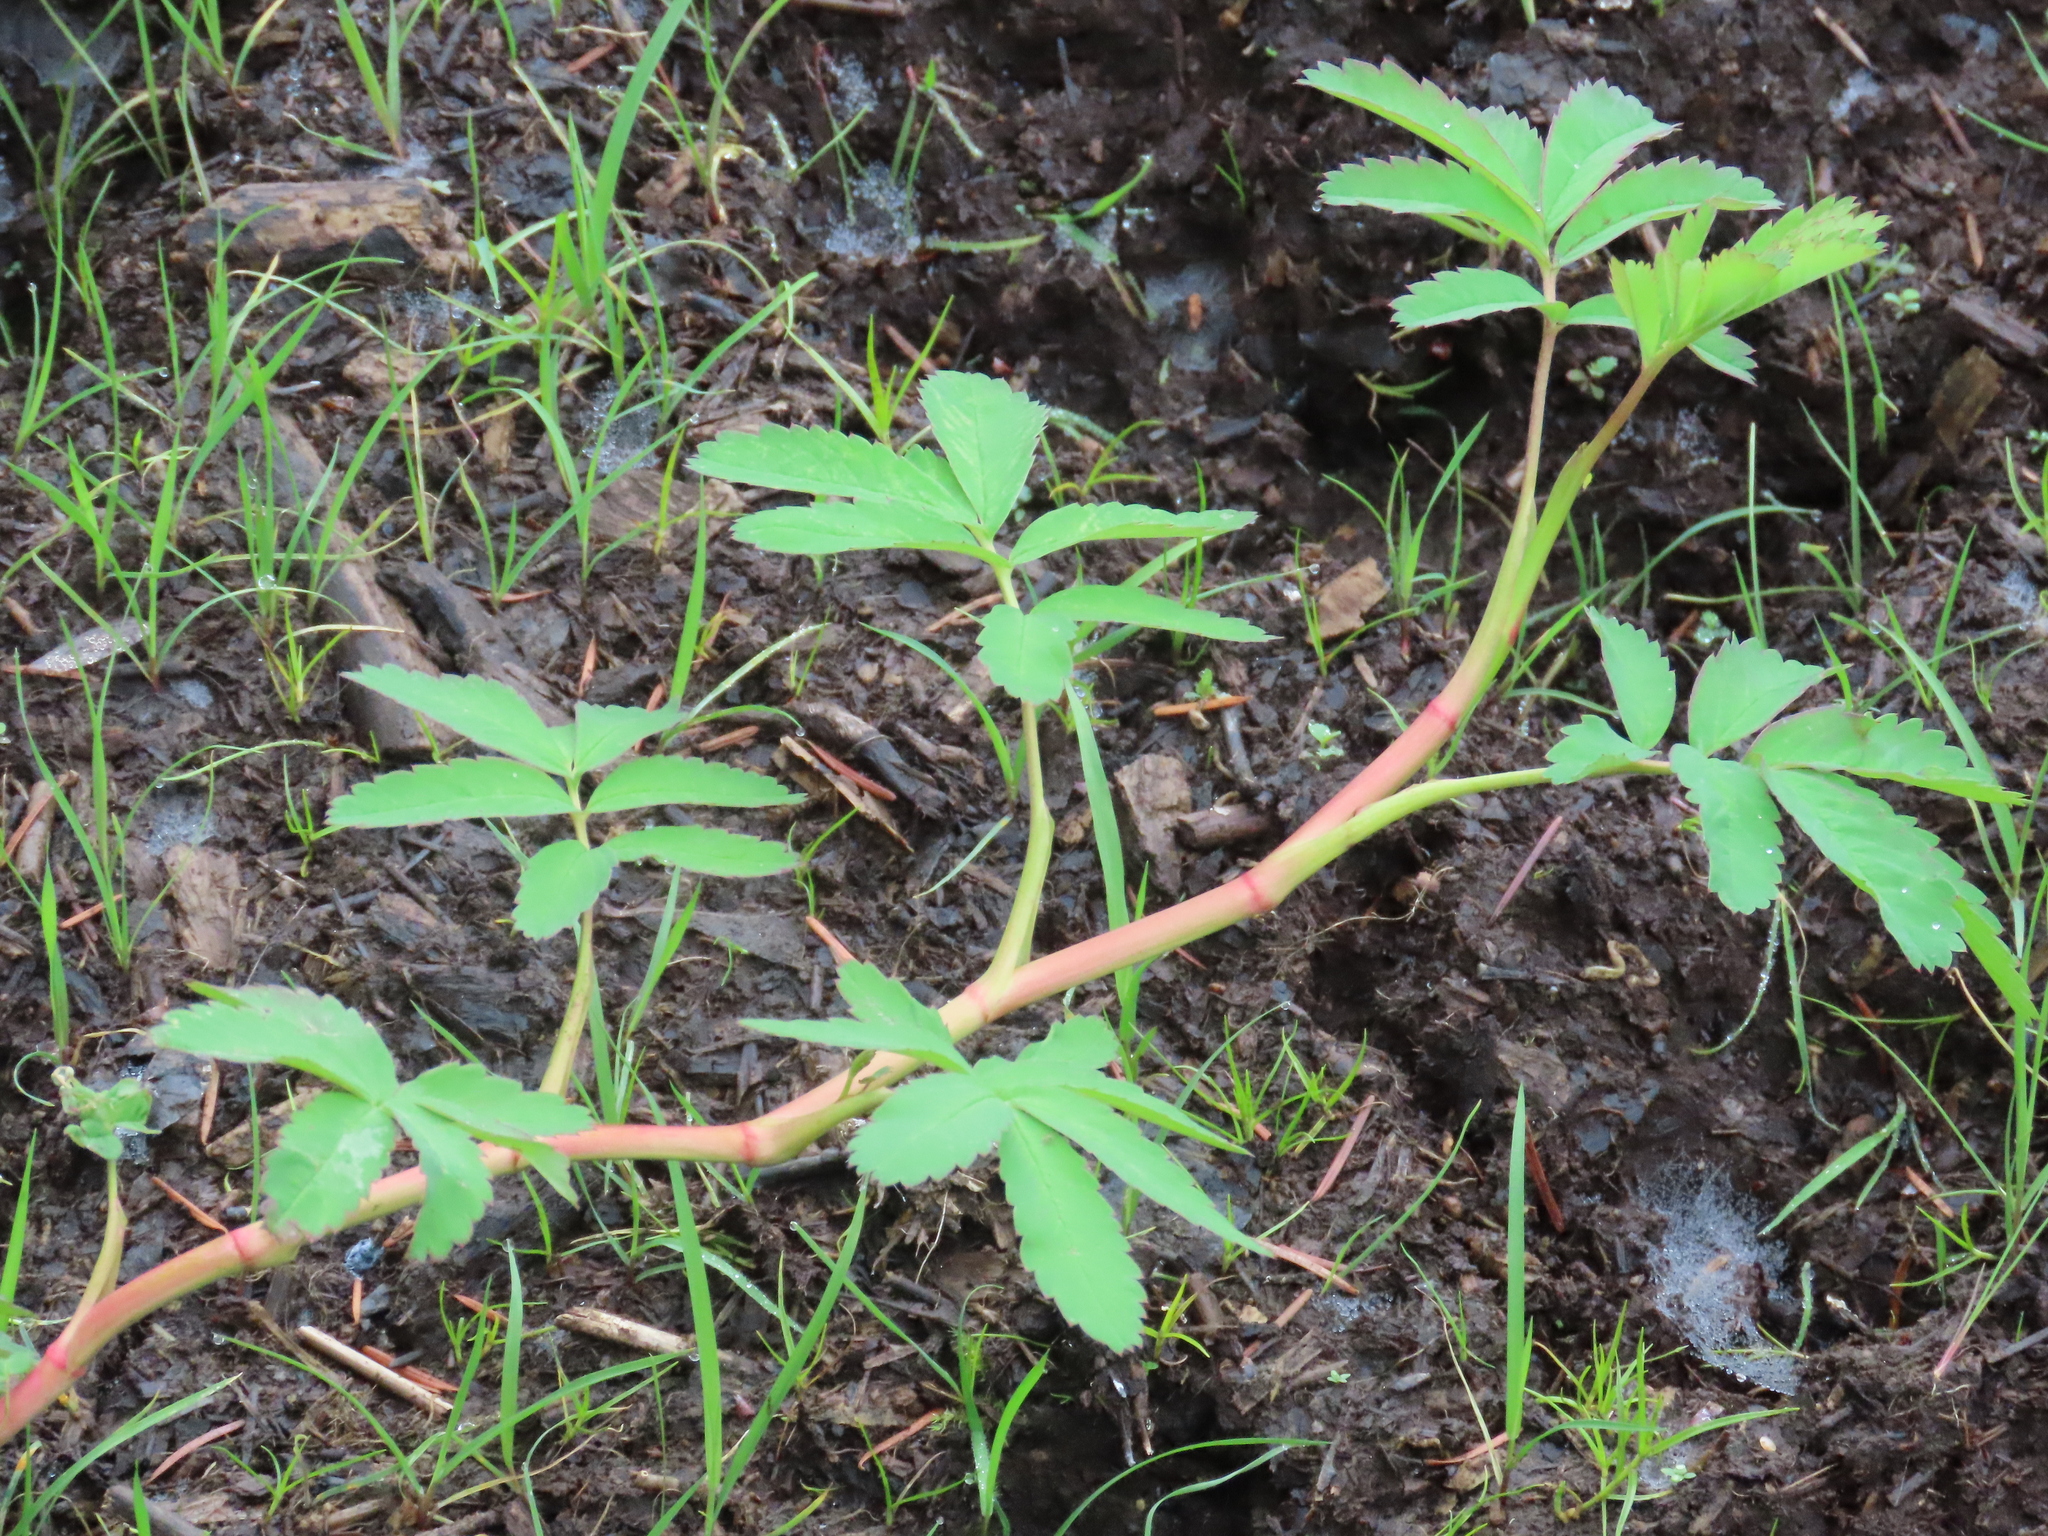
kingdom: Plantae
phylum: Tracheophyta
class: Magnoliopsida
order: Rosales
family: Rosaceae
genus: Comarum
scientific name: Comarum palustre
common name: Marsh cinquefoil
